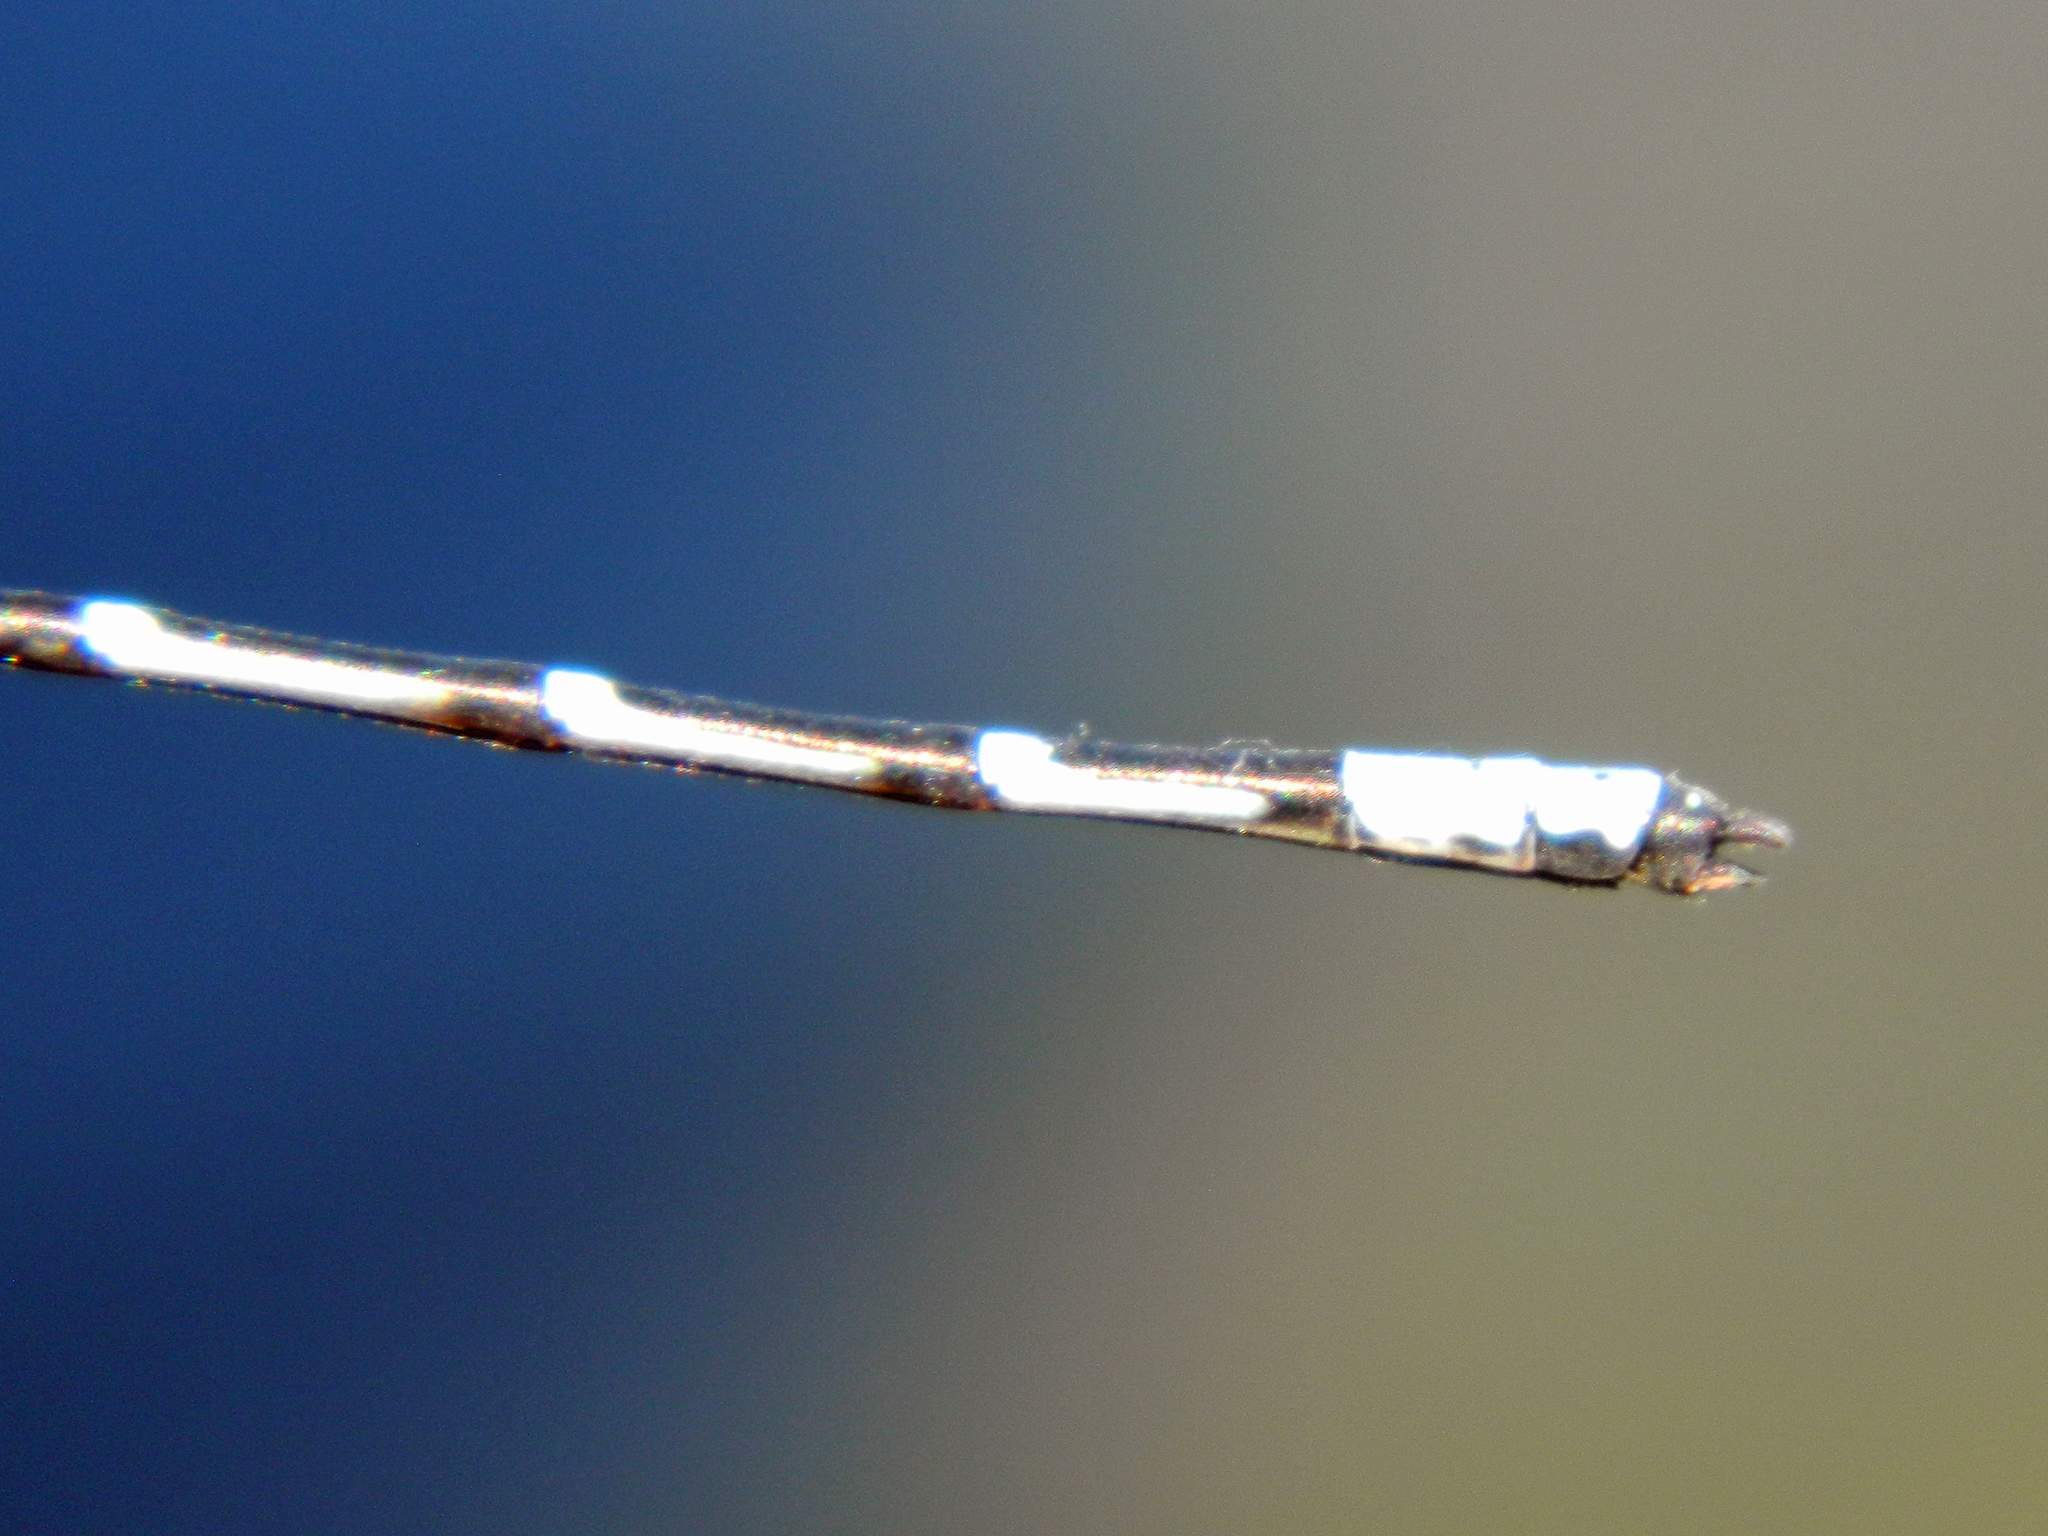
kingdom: Animalia
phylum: Arthropoda
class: Insecta
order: Odonata
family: Coenagrionidae
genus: Chromagrion
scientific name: Chromagrion conditum
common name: Aurora damsel
